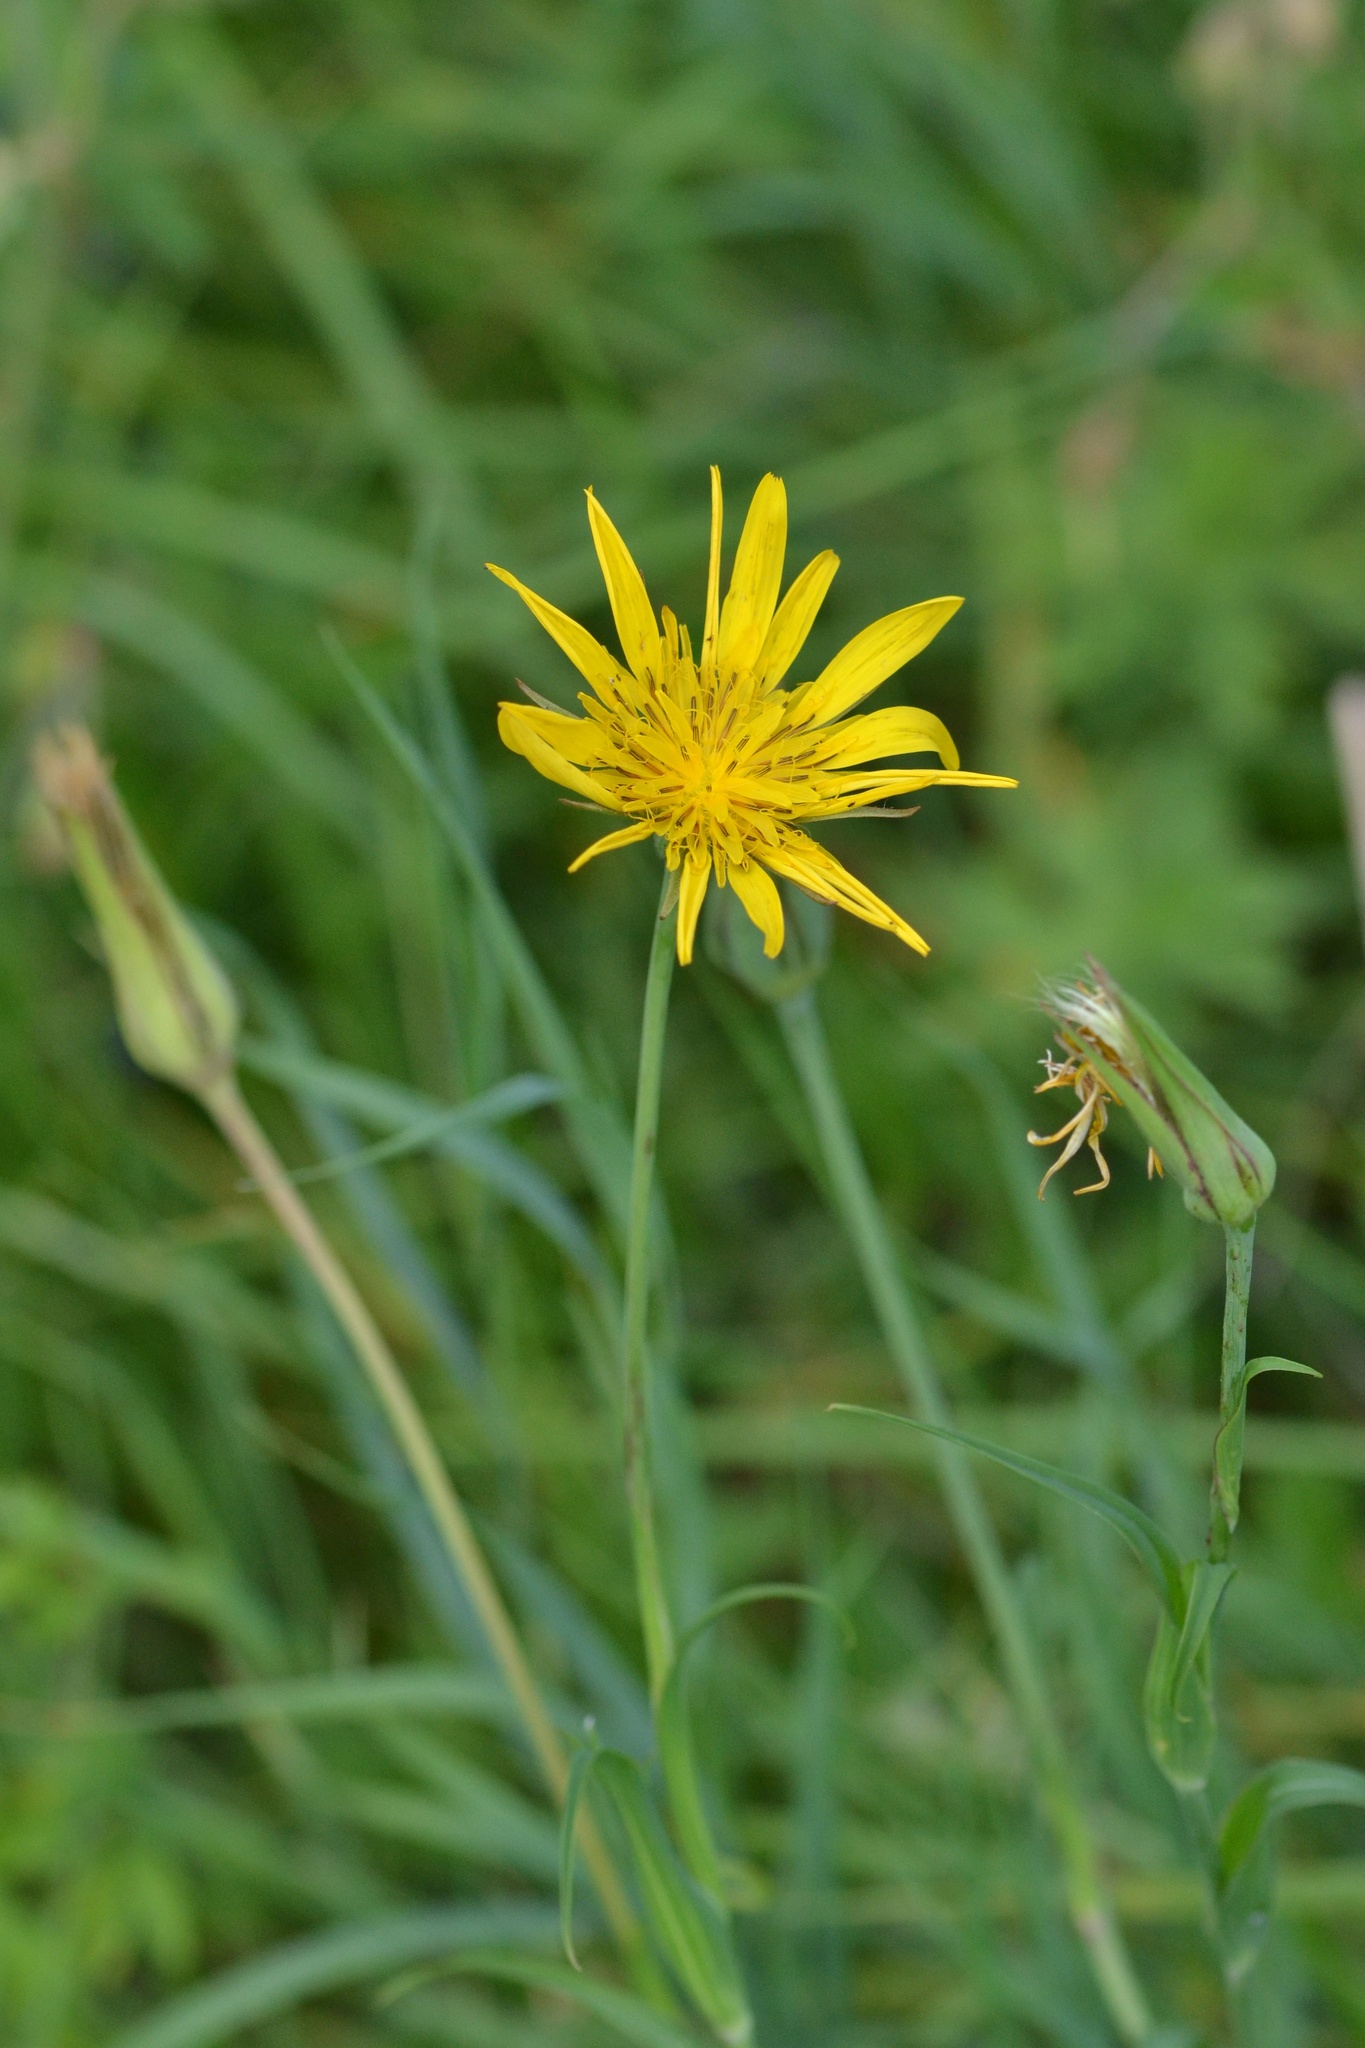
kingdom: Plantae
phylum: Tracheophyta
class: Magnoliopsida
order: Asterales
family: Asteraceae
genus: Tragopogon
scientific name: Tragopogon orientalis
